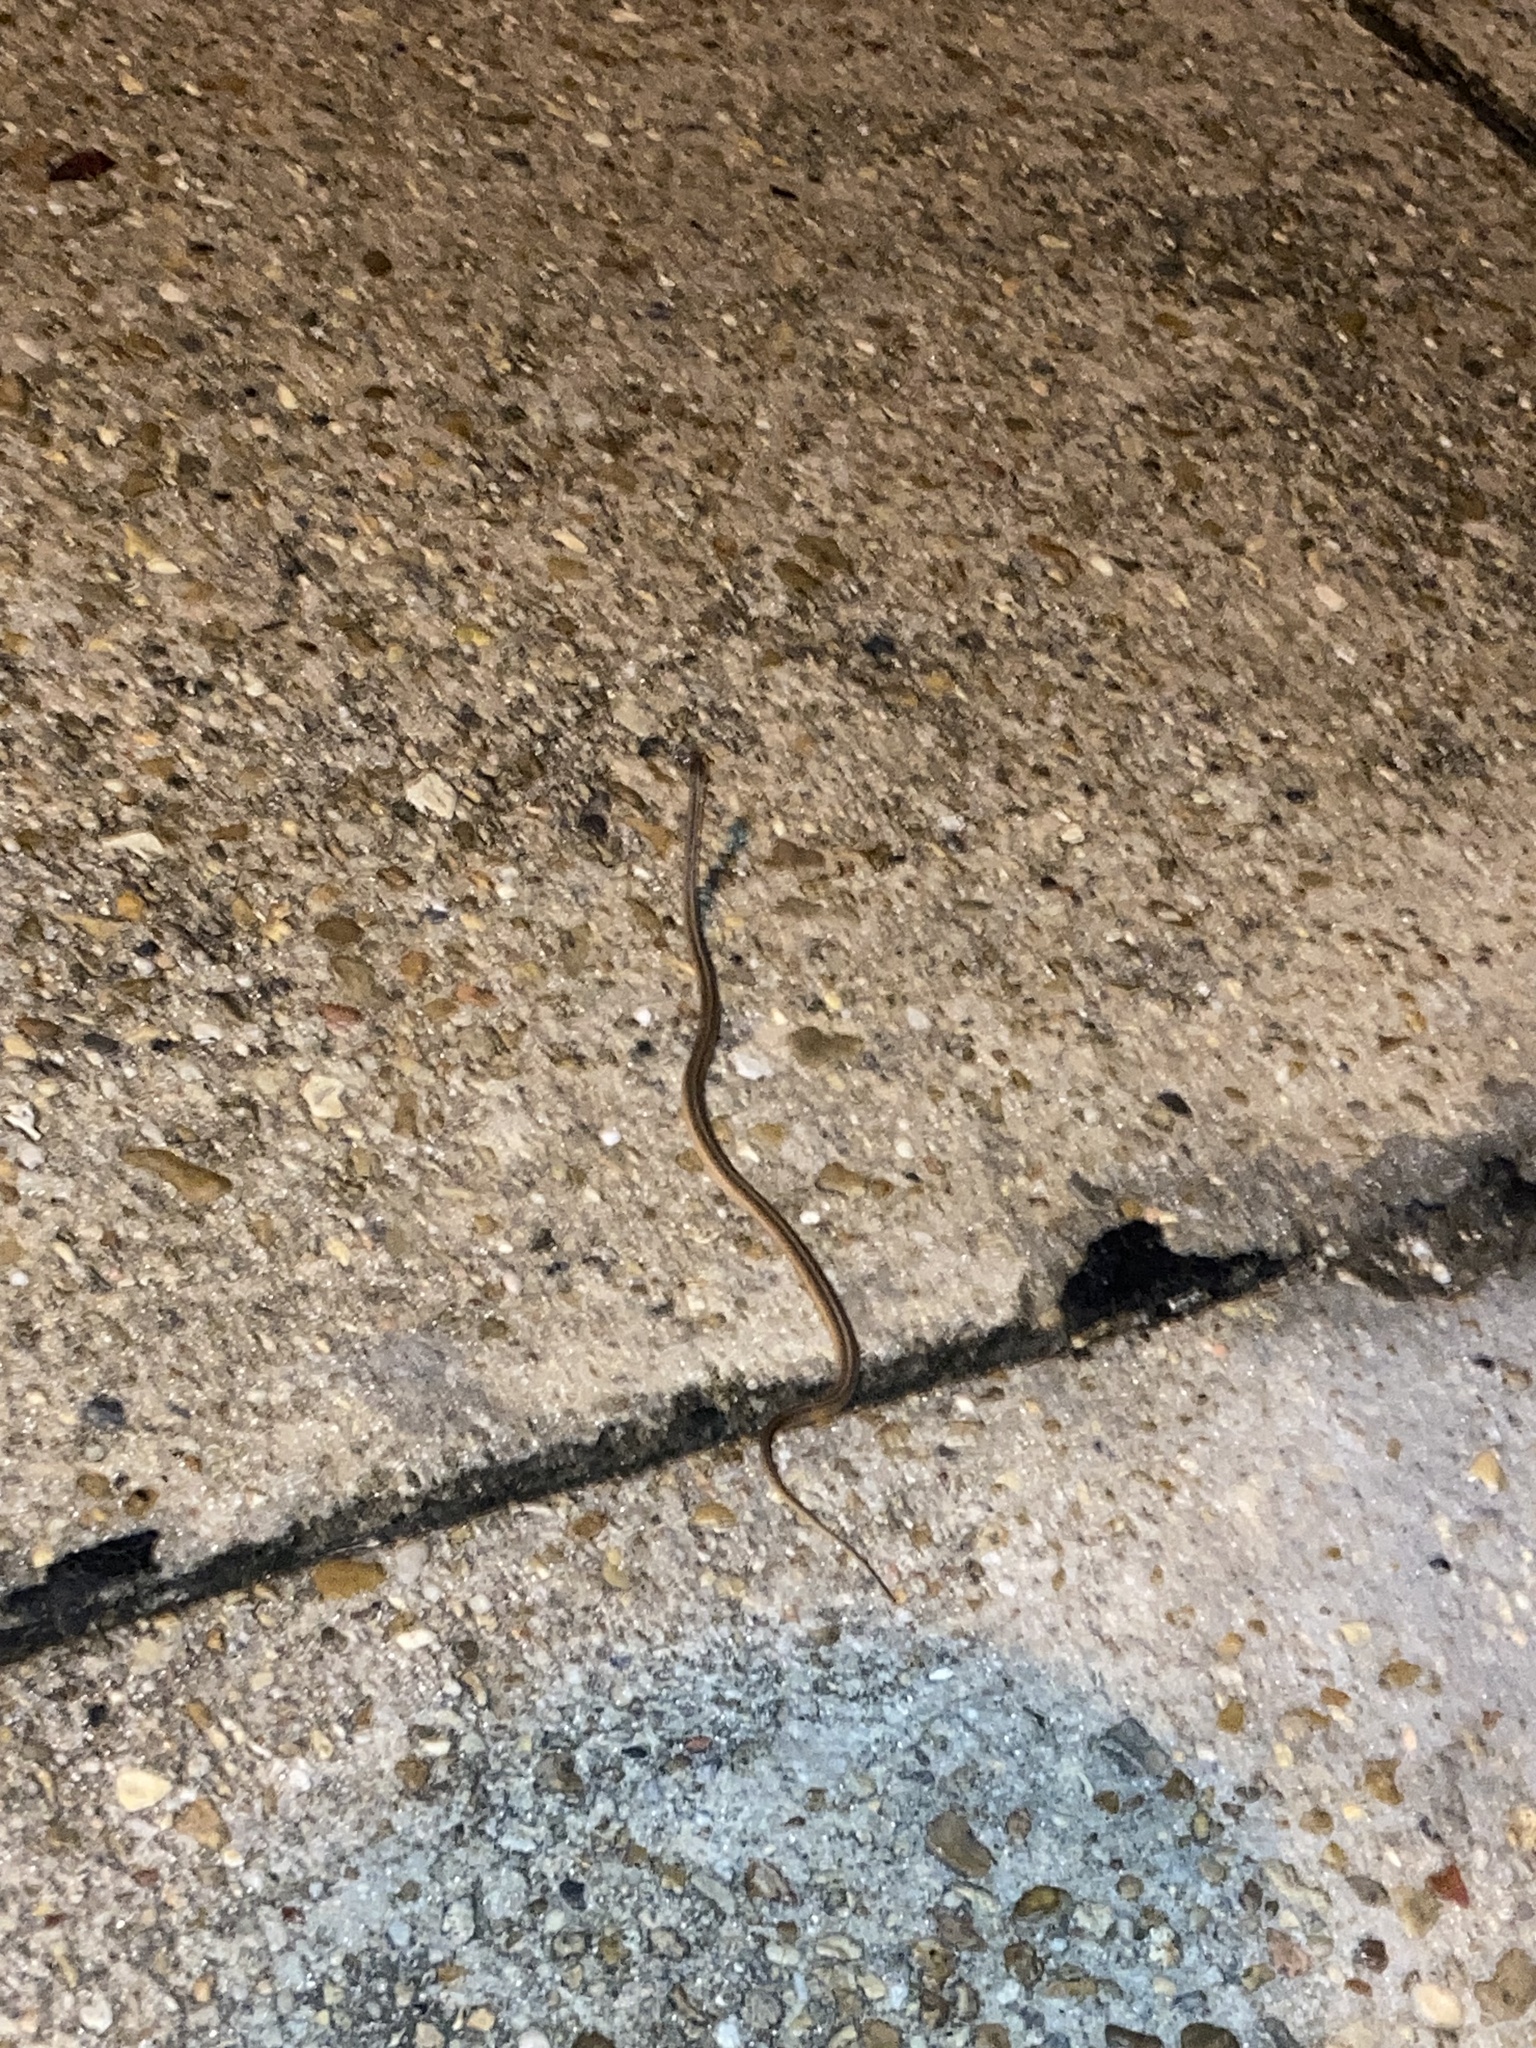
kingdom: Animalia
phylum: Chordata
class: Squamata
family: Colubridae
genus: Storeria
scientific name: Storeria dekayi
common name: (dekay’s) brown snake
